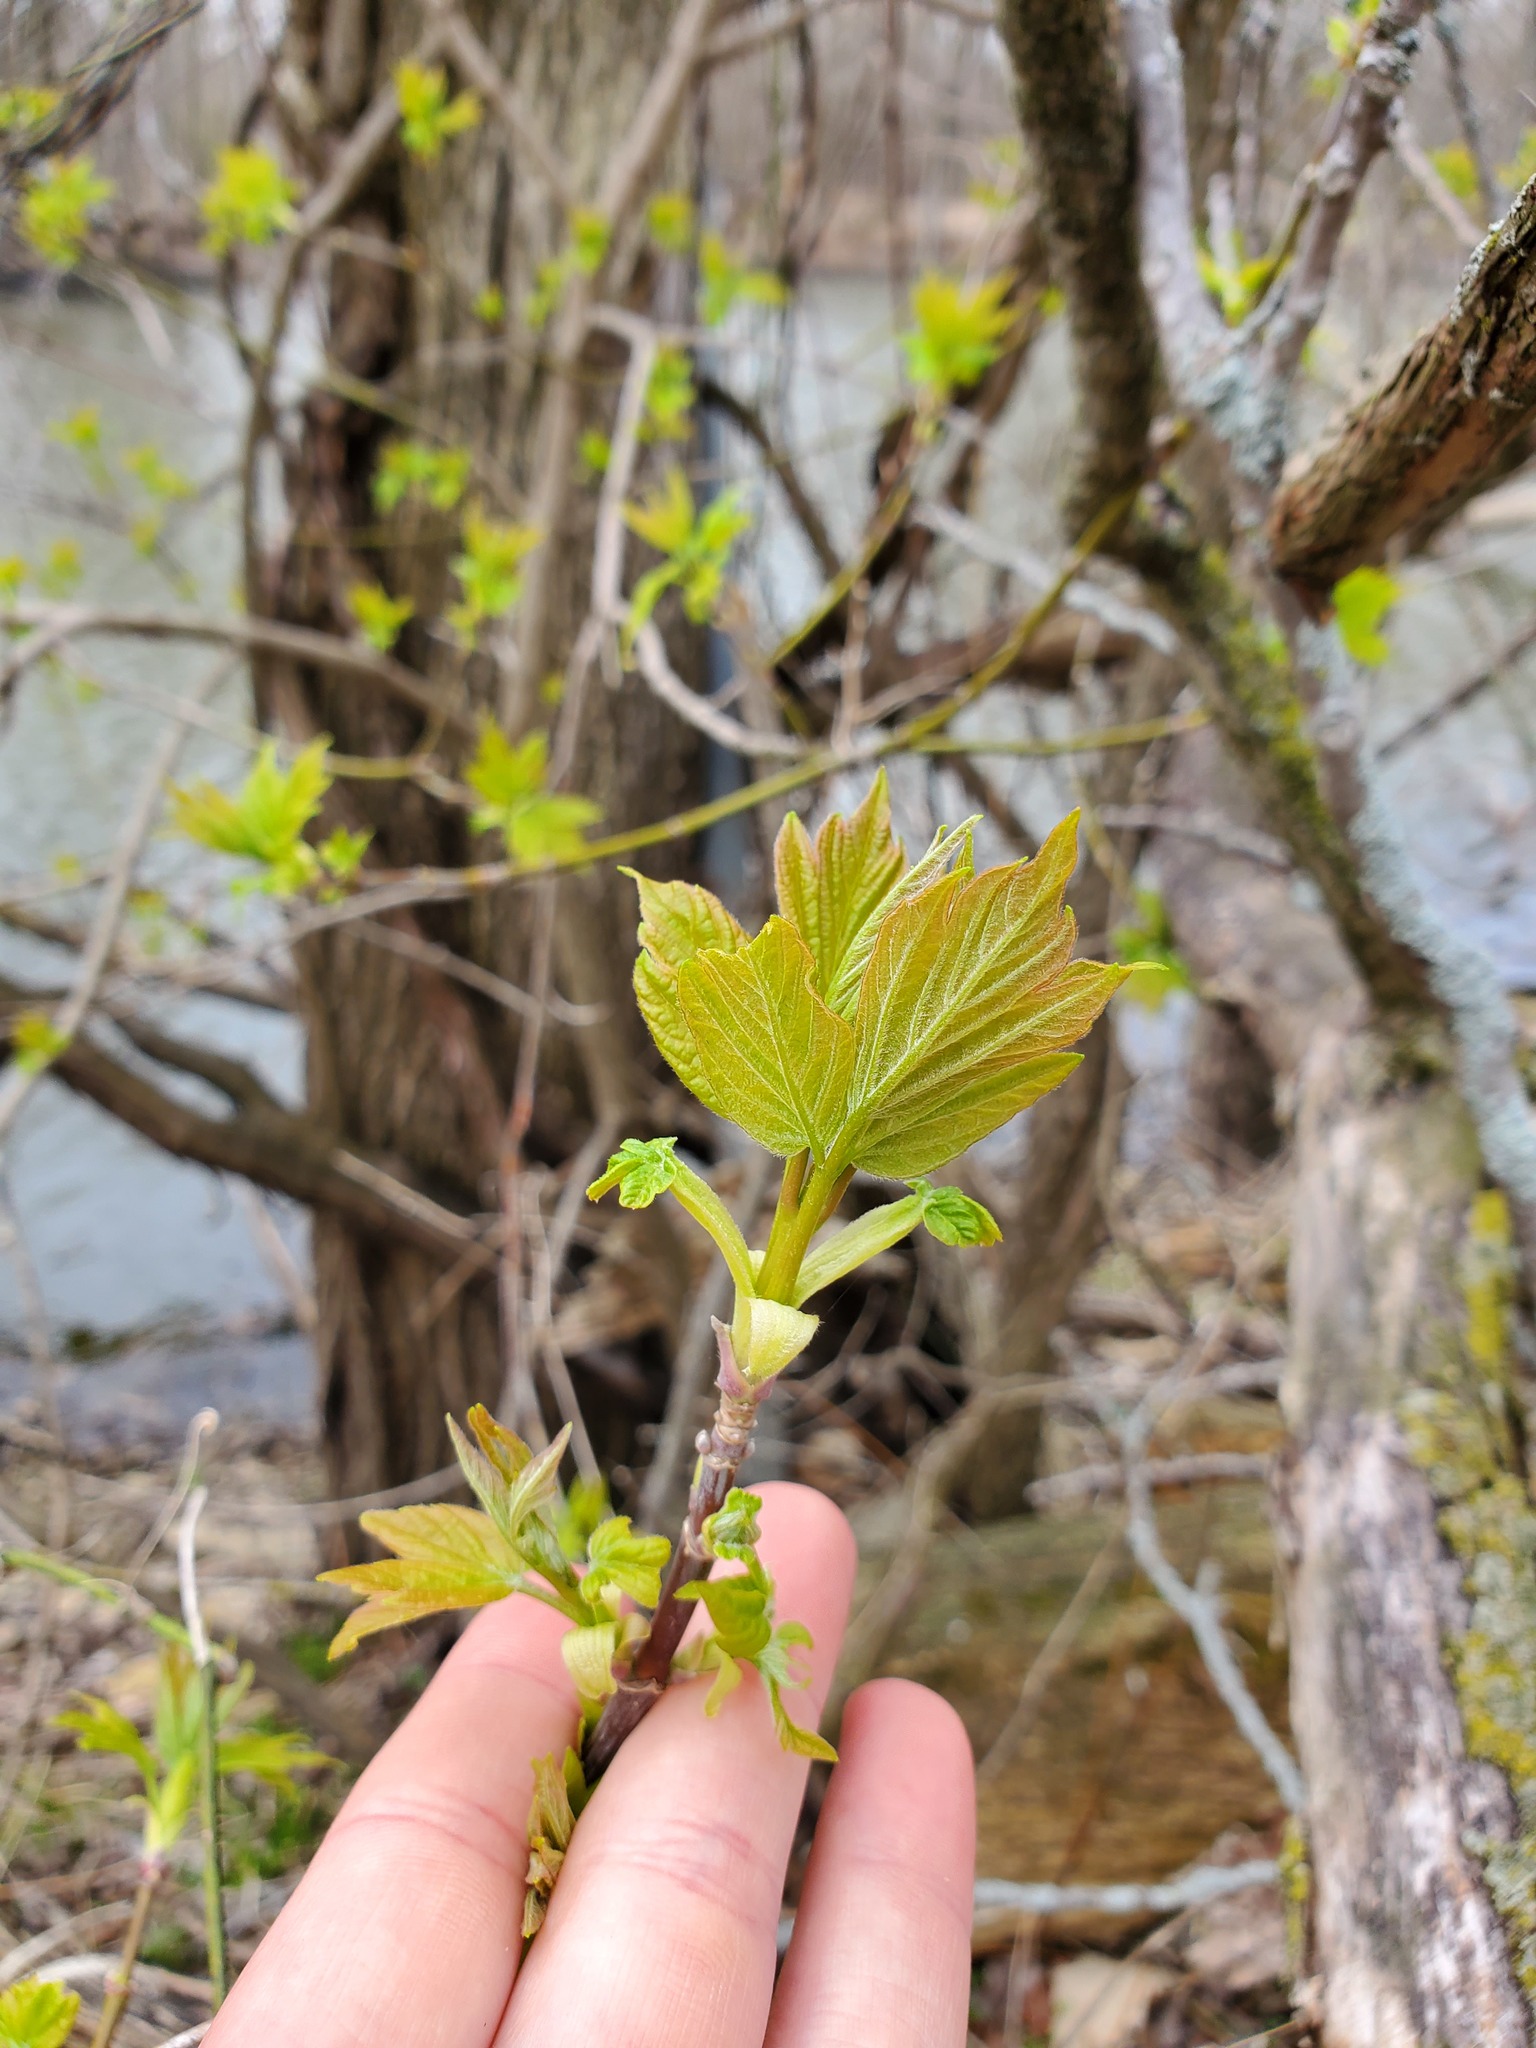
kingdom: Plantae
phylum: Tracheophyta
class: Magnoliopsida
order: Sapindales
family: Sapindaceae
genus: Acer
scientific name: Acer negundo
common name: Ashleaf maple
